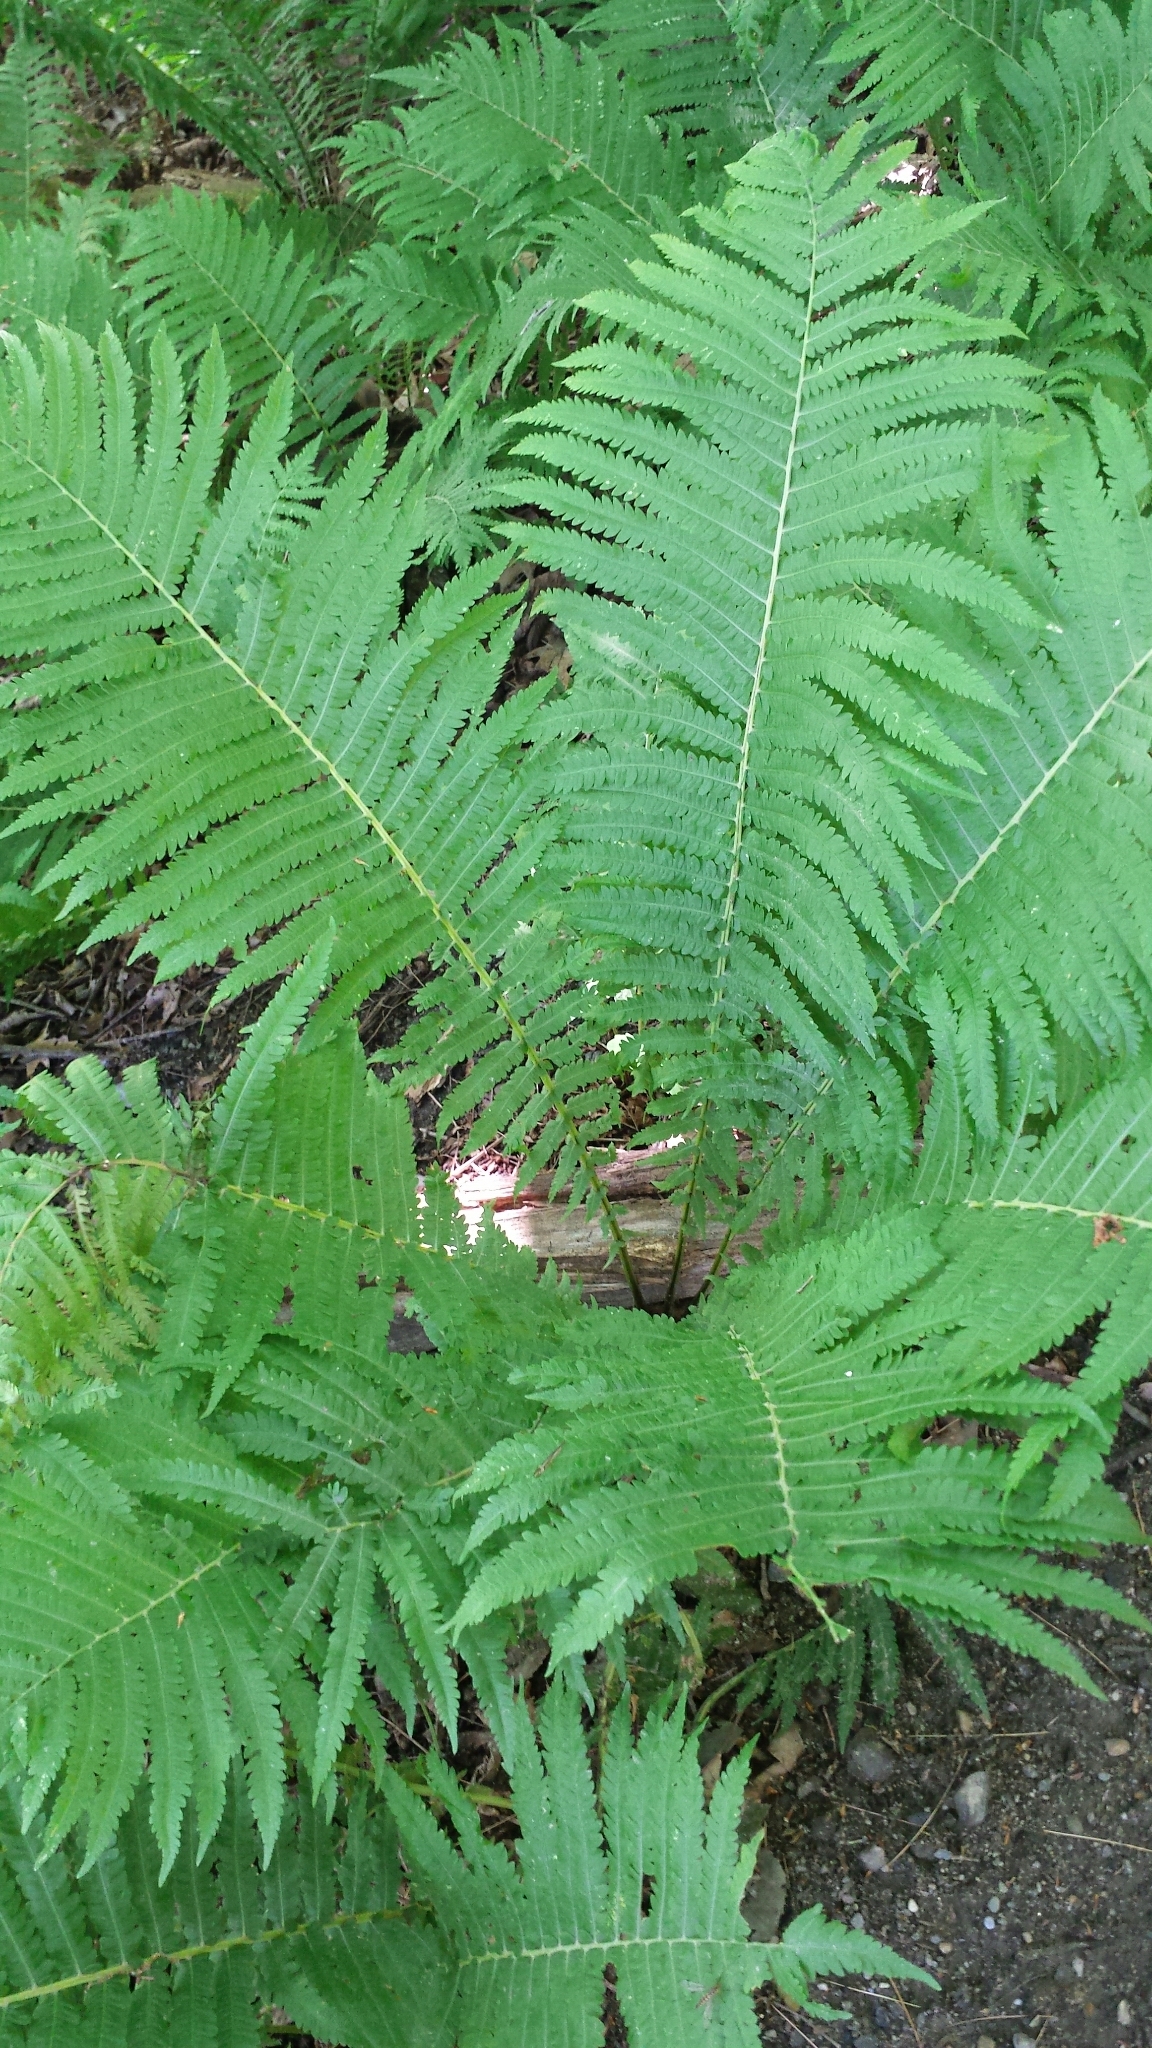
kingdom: Plantae
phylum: Tracheophyta
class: Polypodiopsida
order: Polypodiales
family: Onocleaceae
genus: Matteuccia
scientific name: Matteuccia struthiopteris
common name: Ostrich fern
